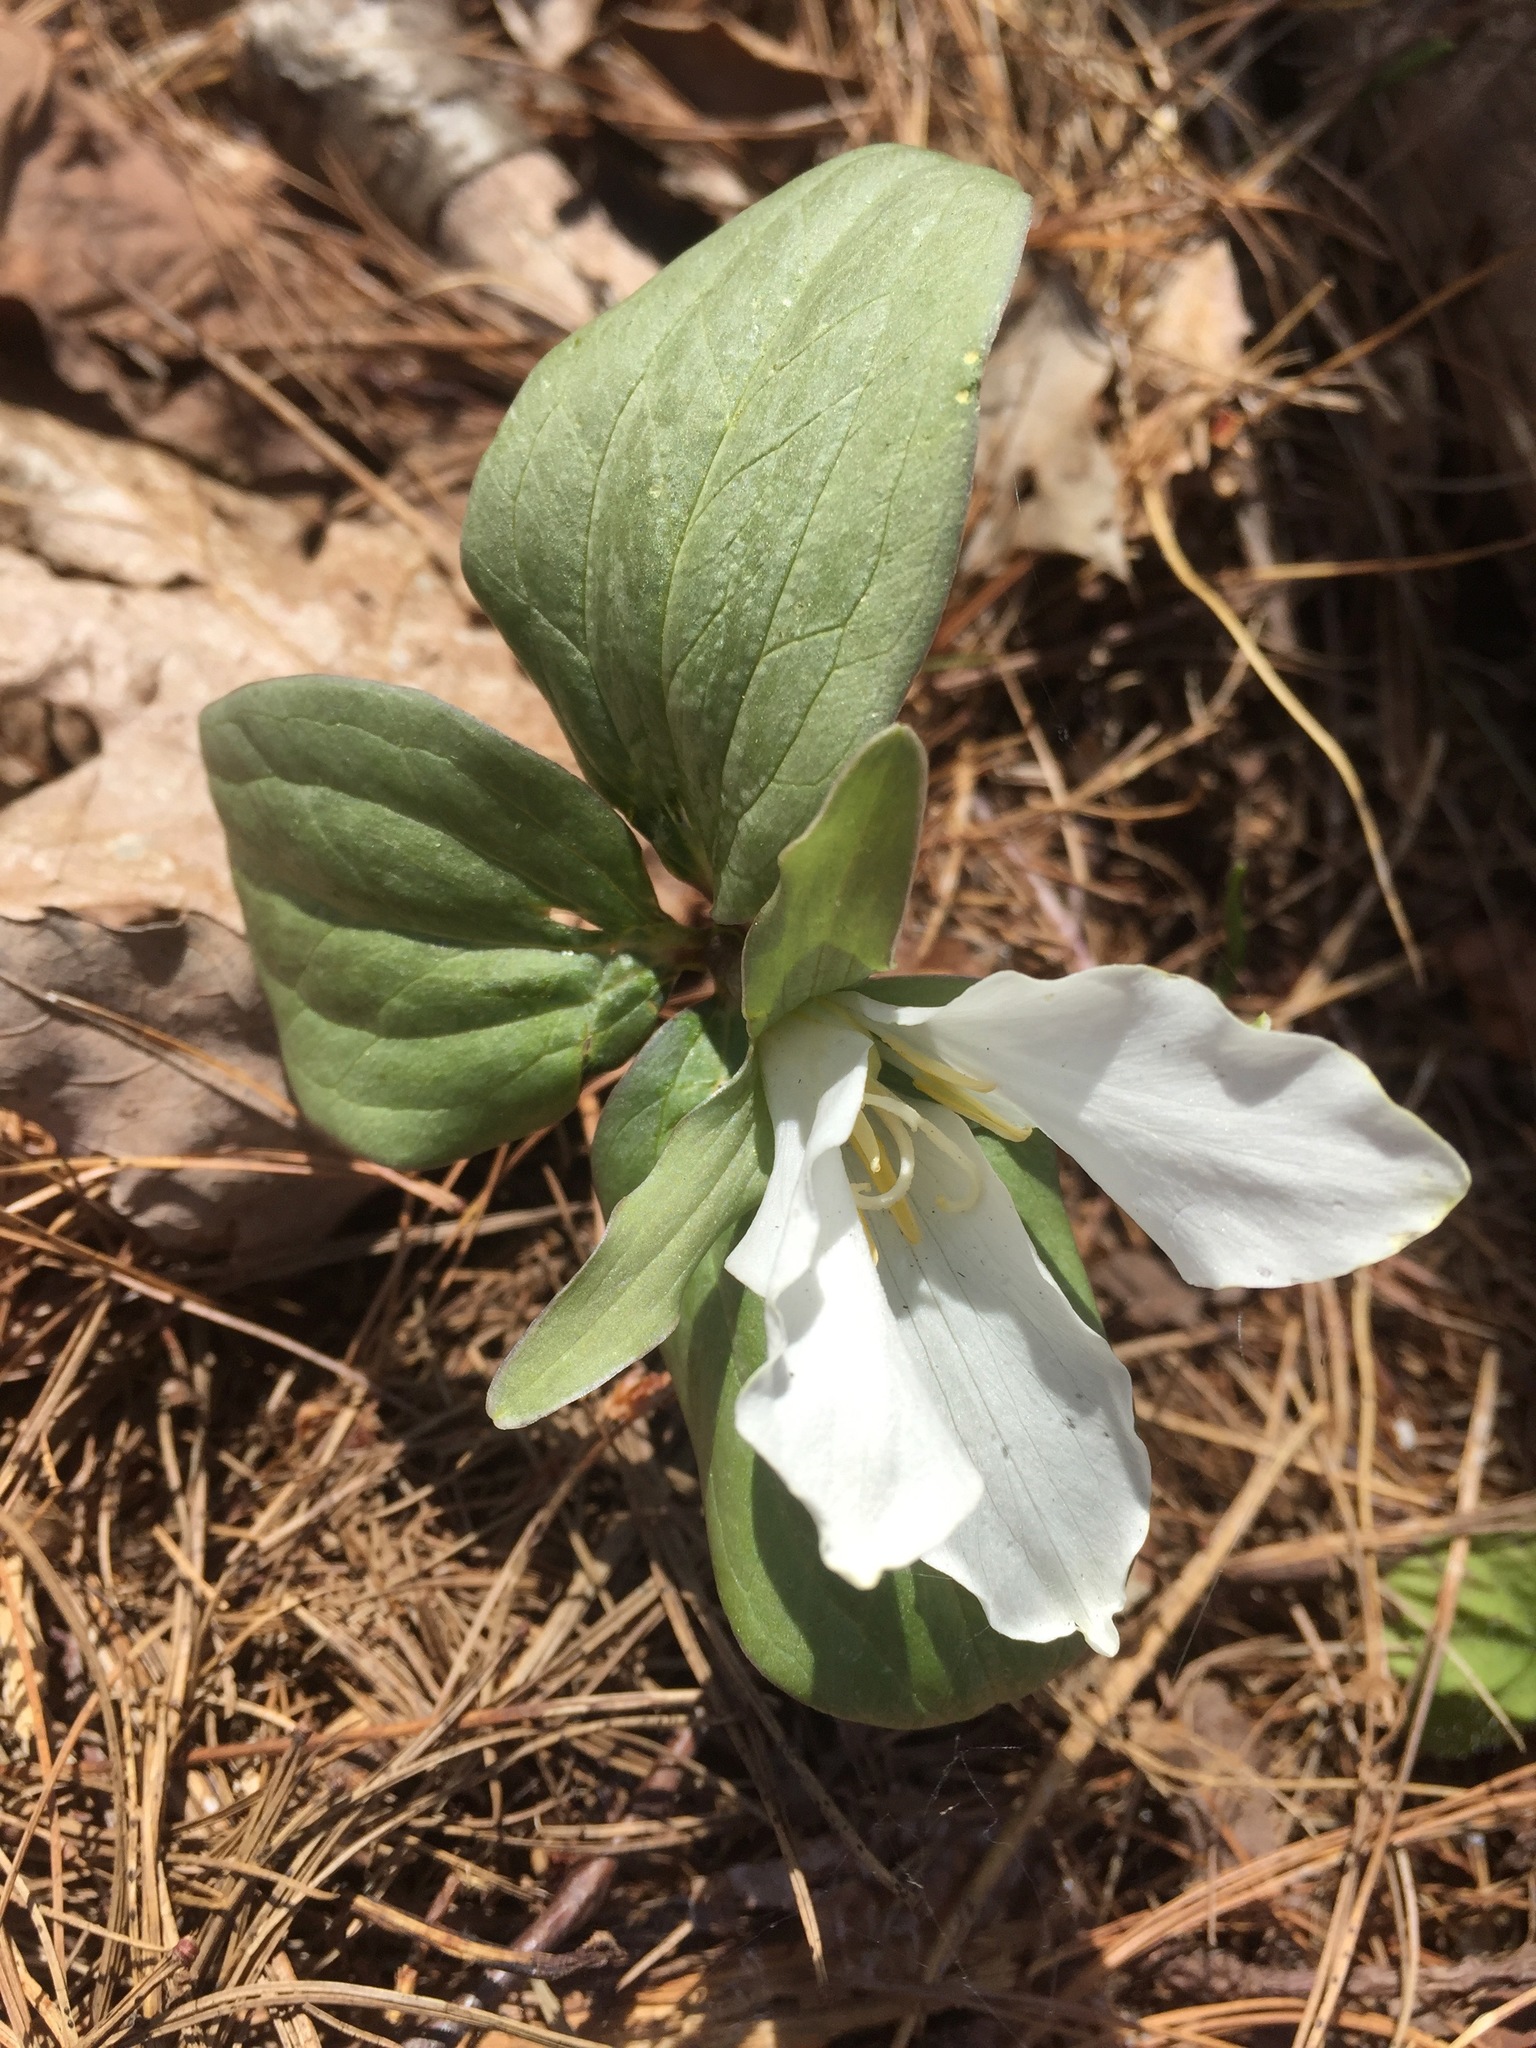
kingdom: Plantae
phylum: Tracheophyta
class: Liliopsida
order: Liliales
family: Melanthiaceae
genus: Trillium
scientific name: Trillium nivale
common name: Dwarf white trillium
